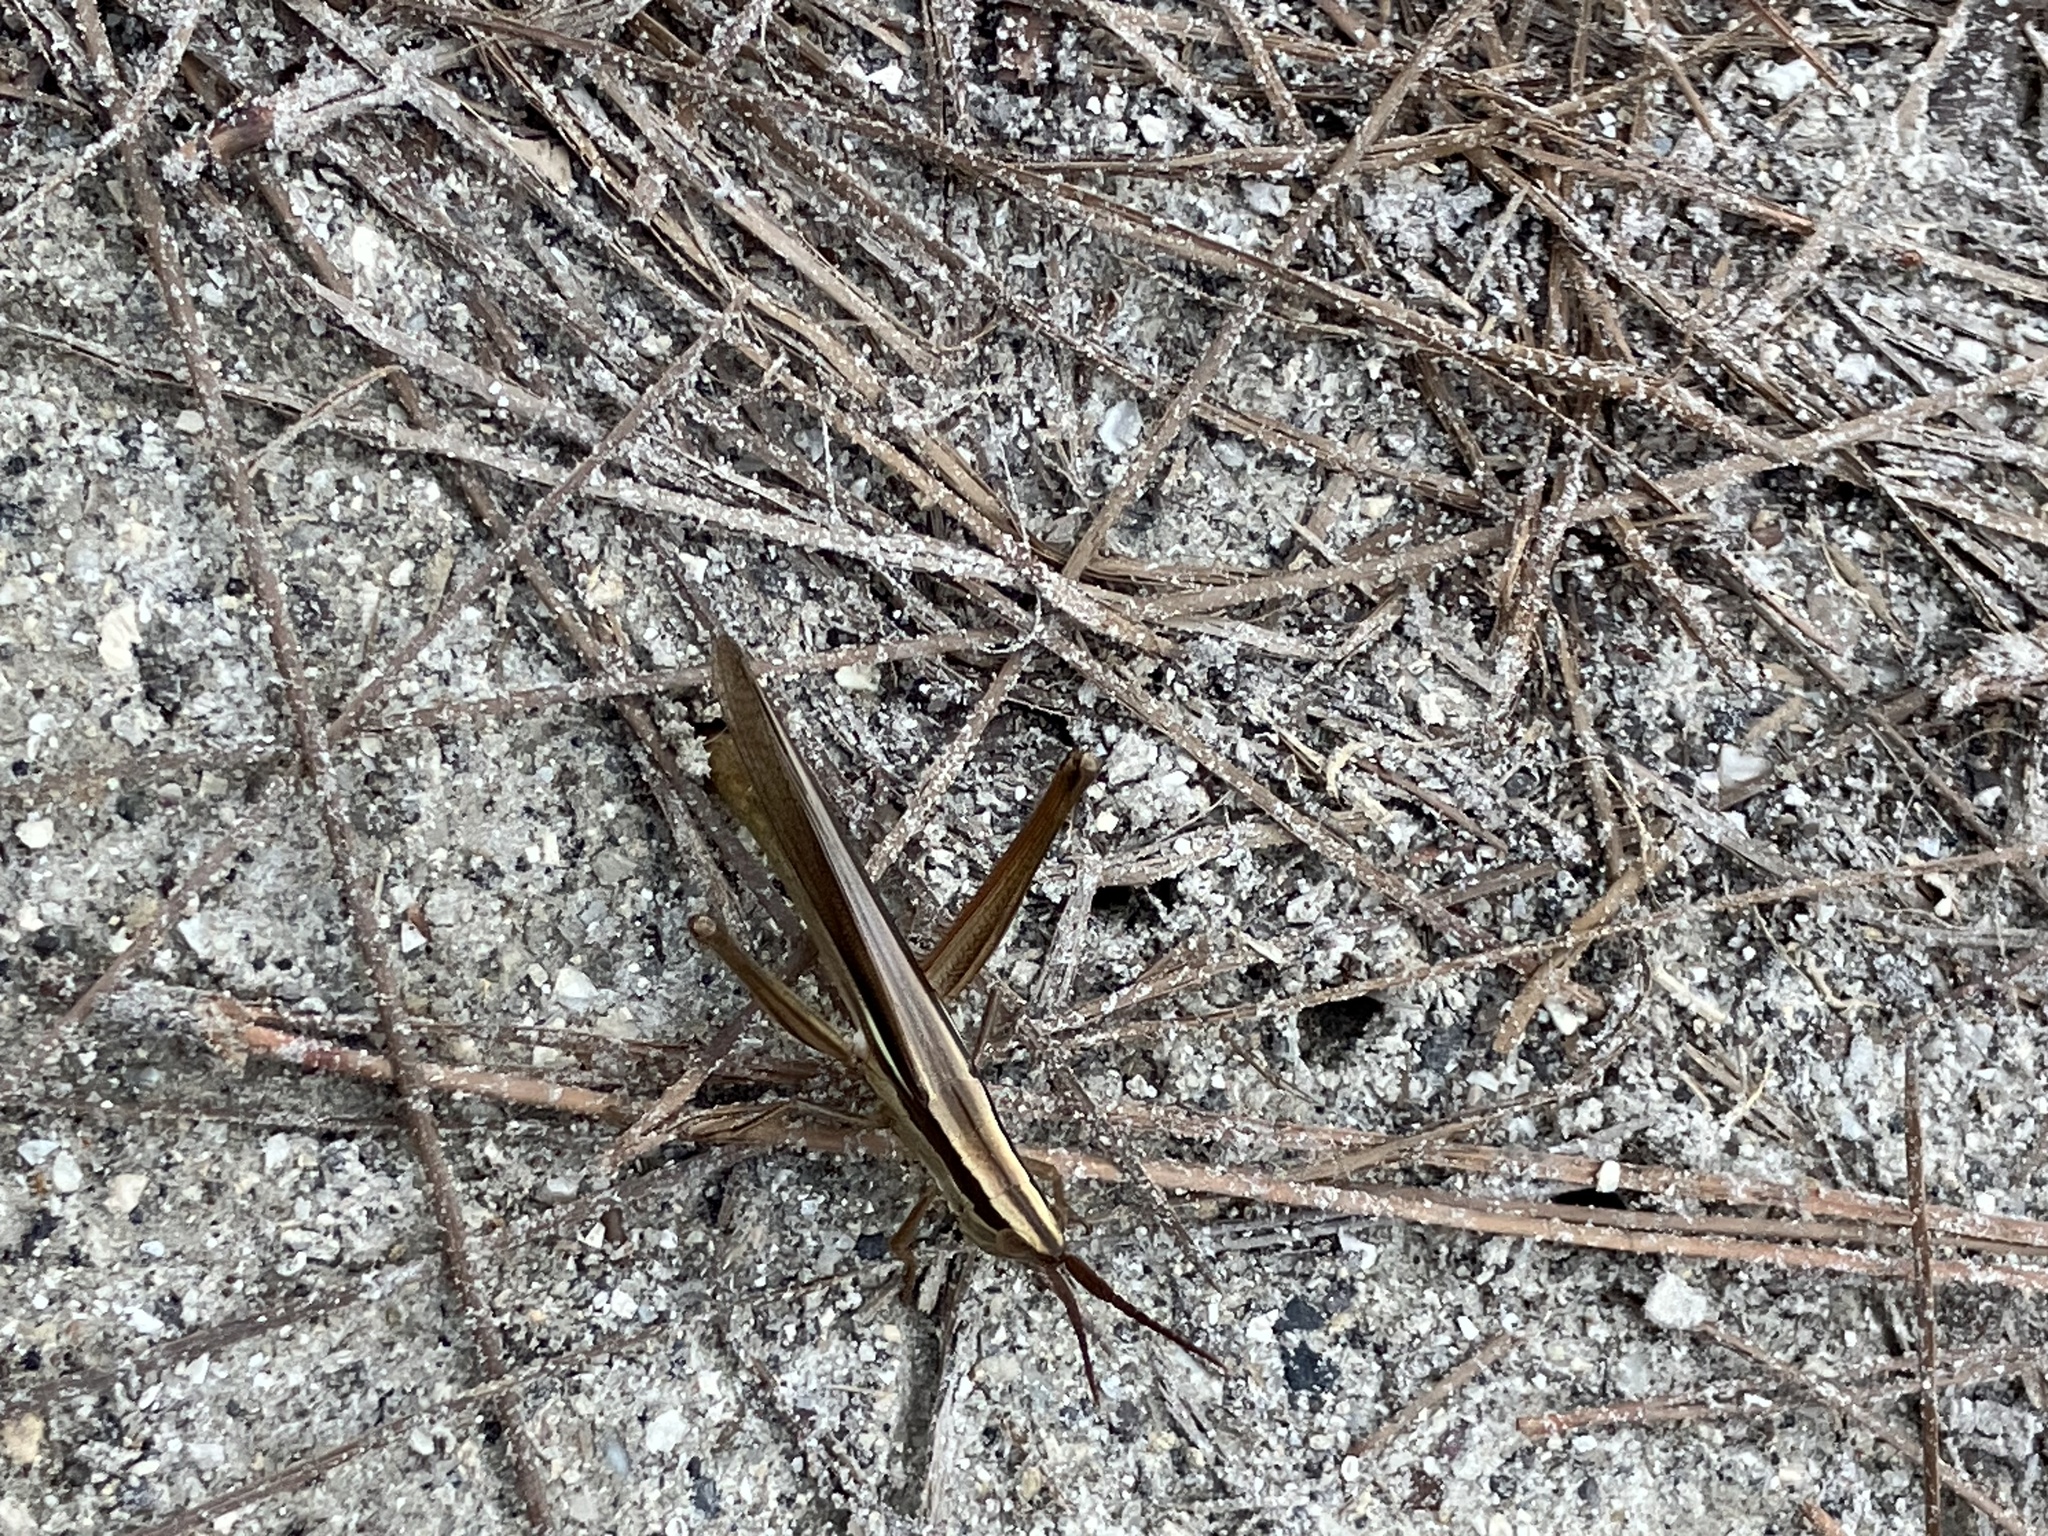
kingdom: Animalia
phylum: Arthropoda
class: Insecta
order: Orthoptera
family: Acrididae
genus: Mermiria
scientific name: Mermiria intertexta
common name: Eastern mermiria grasshopper
